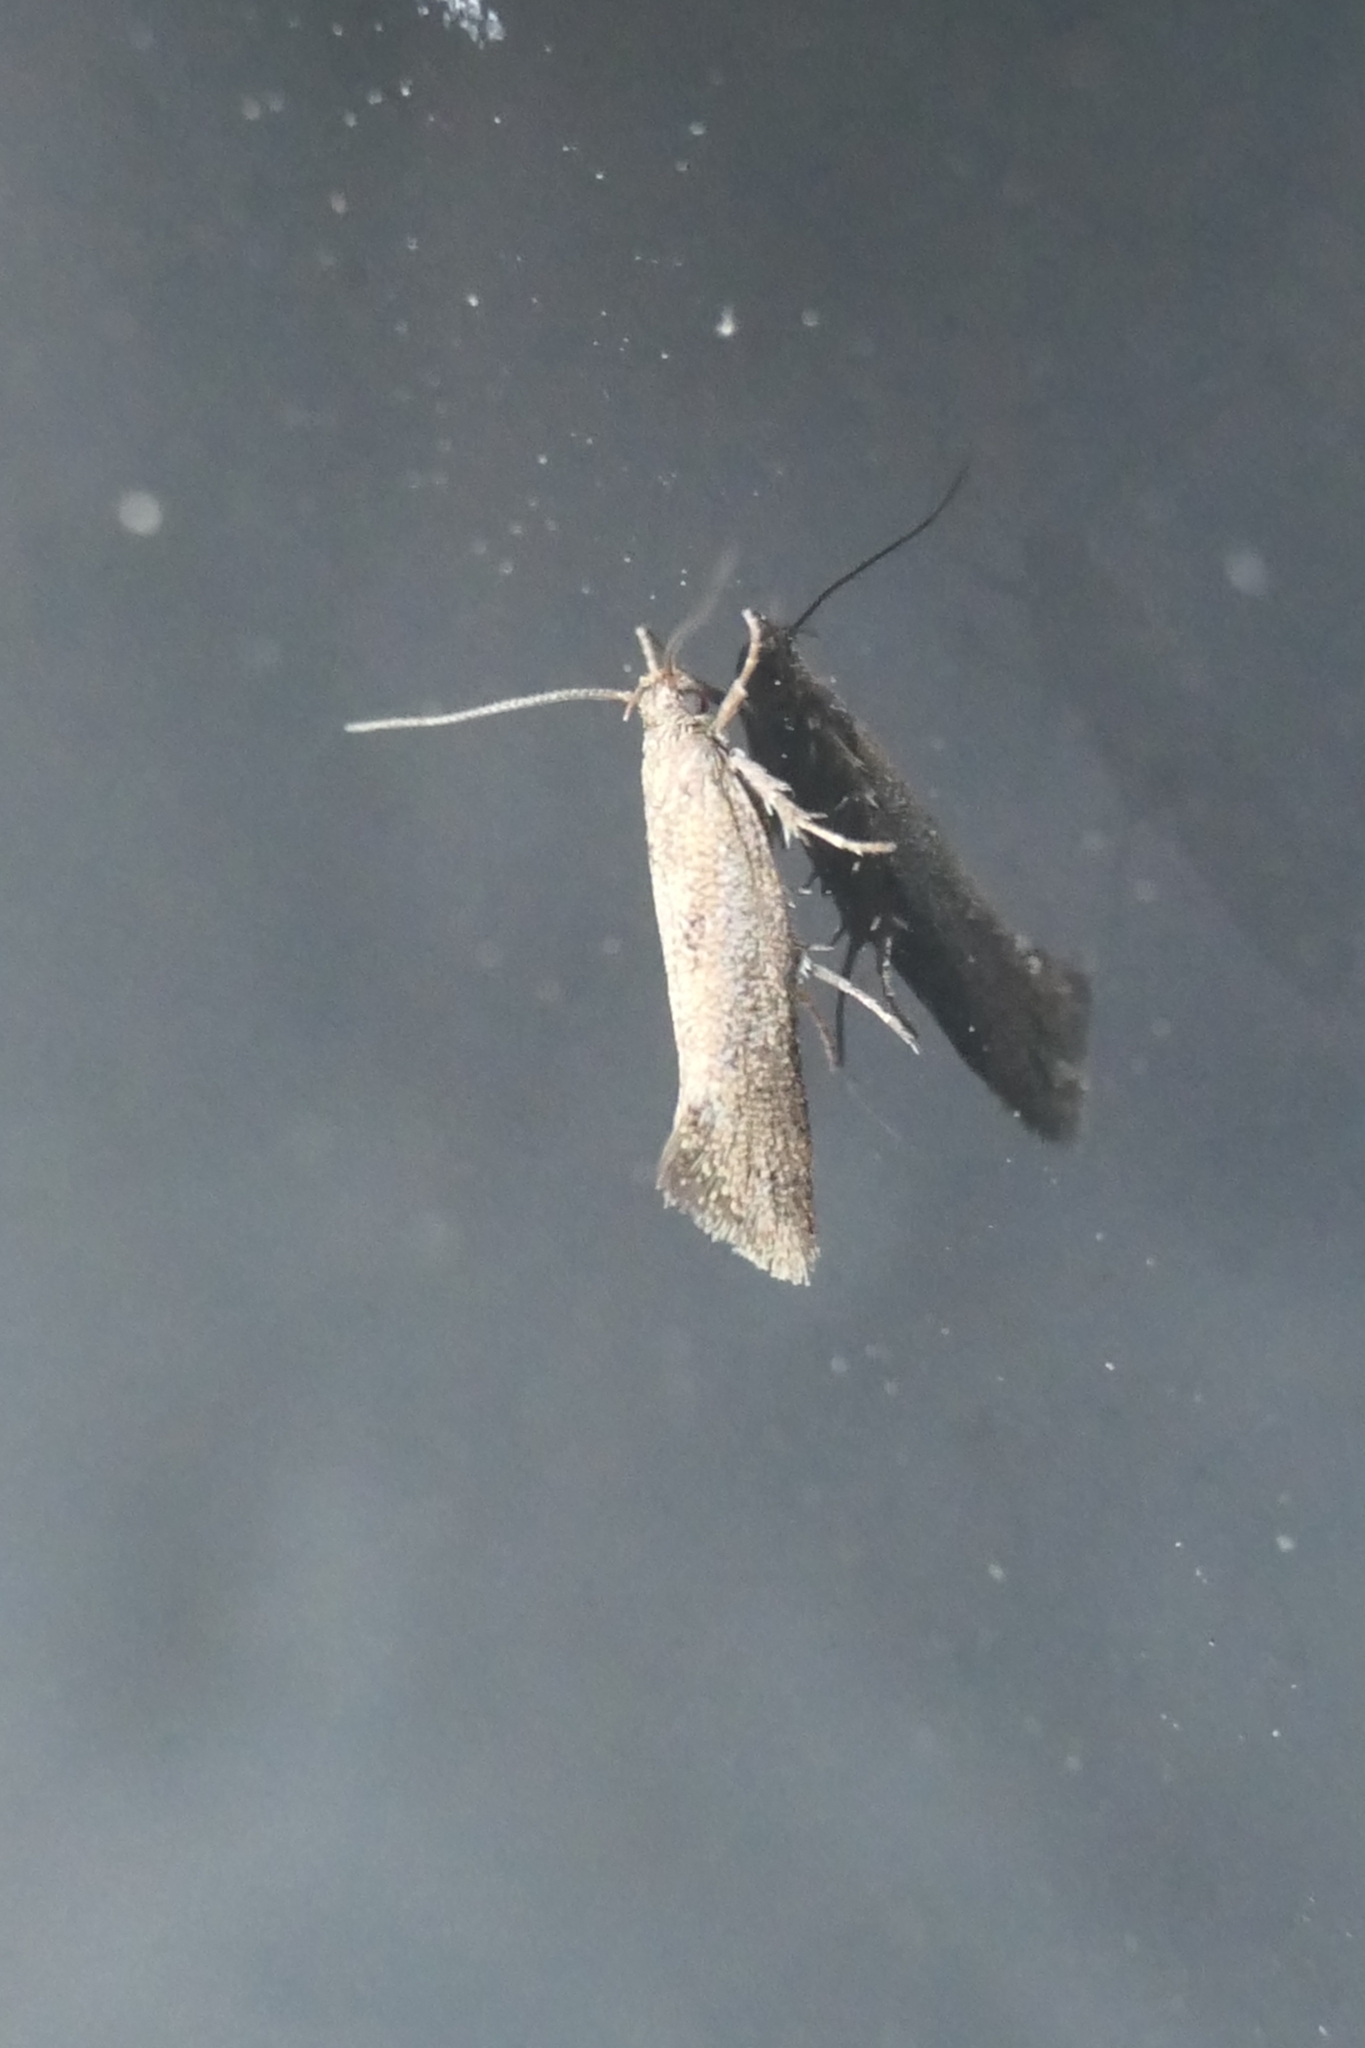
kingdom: Animalia
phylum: Arthropoda
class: Insecta
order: Lepidoptera
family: Oecophoridae
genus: Tingena
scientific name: Tingena siderodeta
